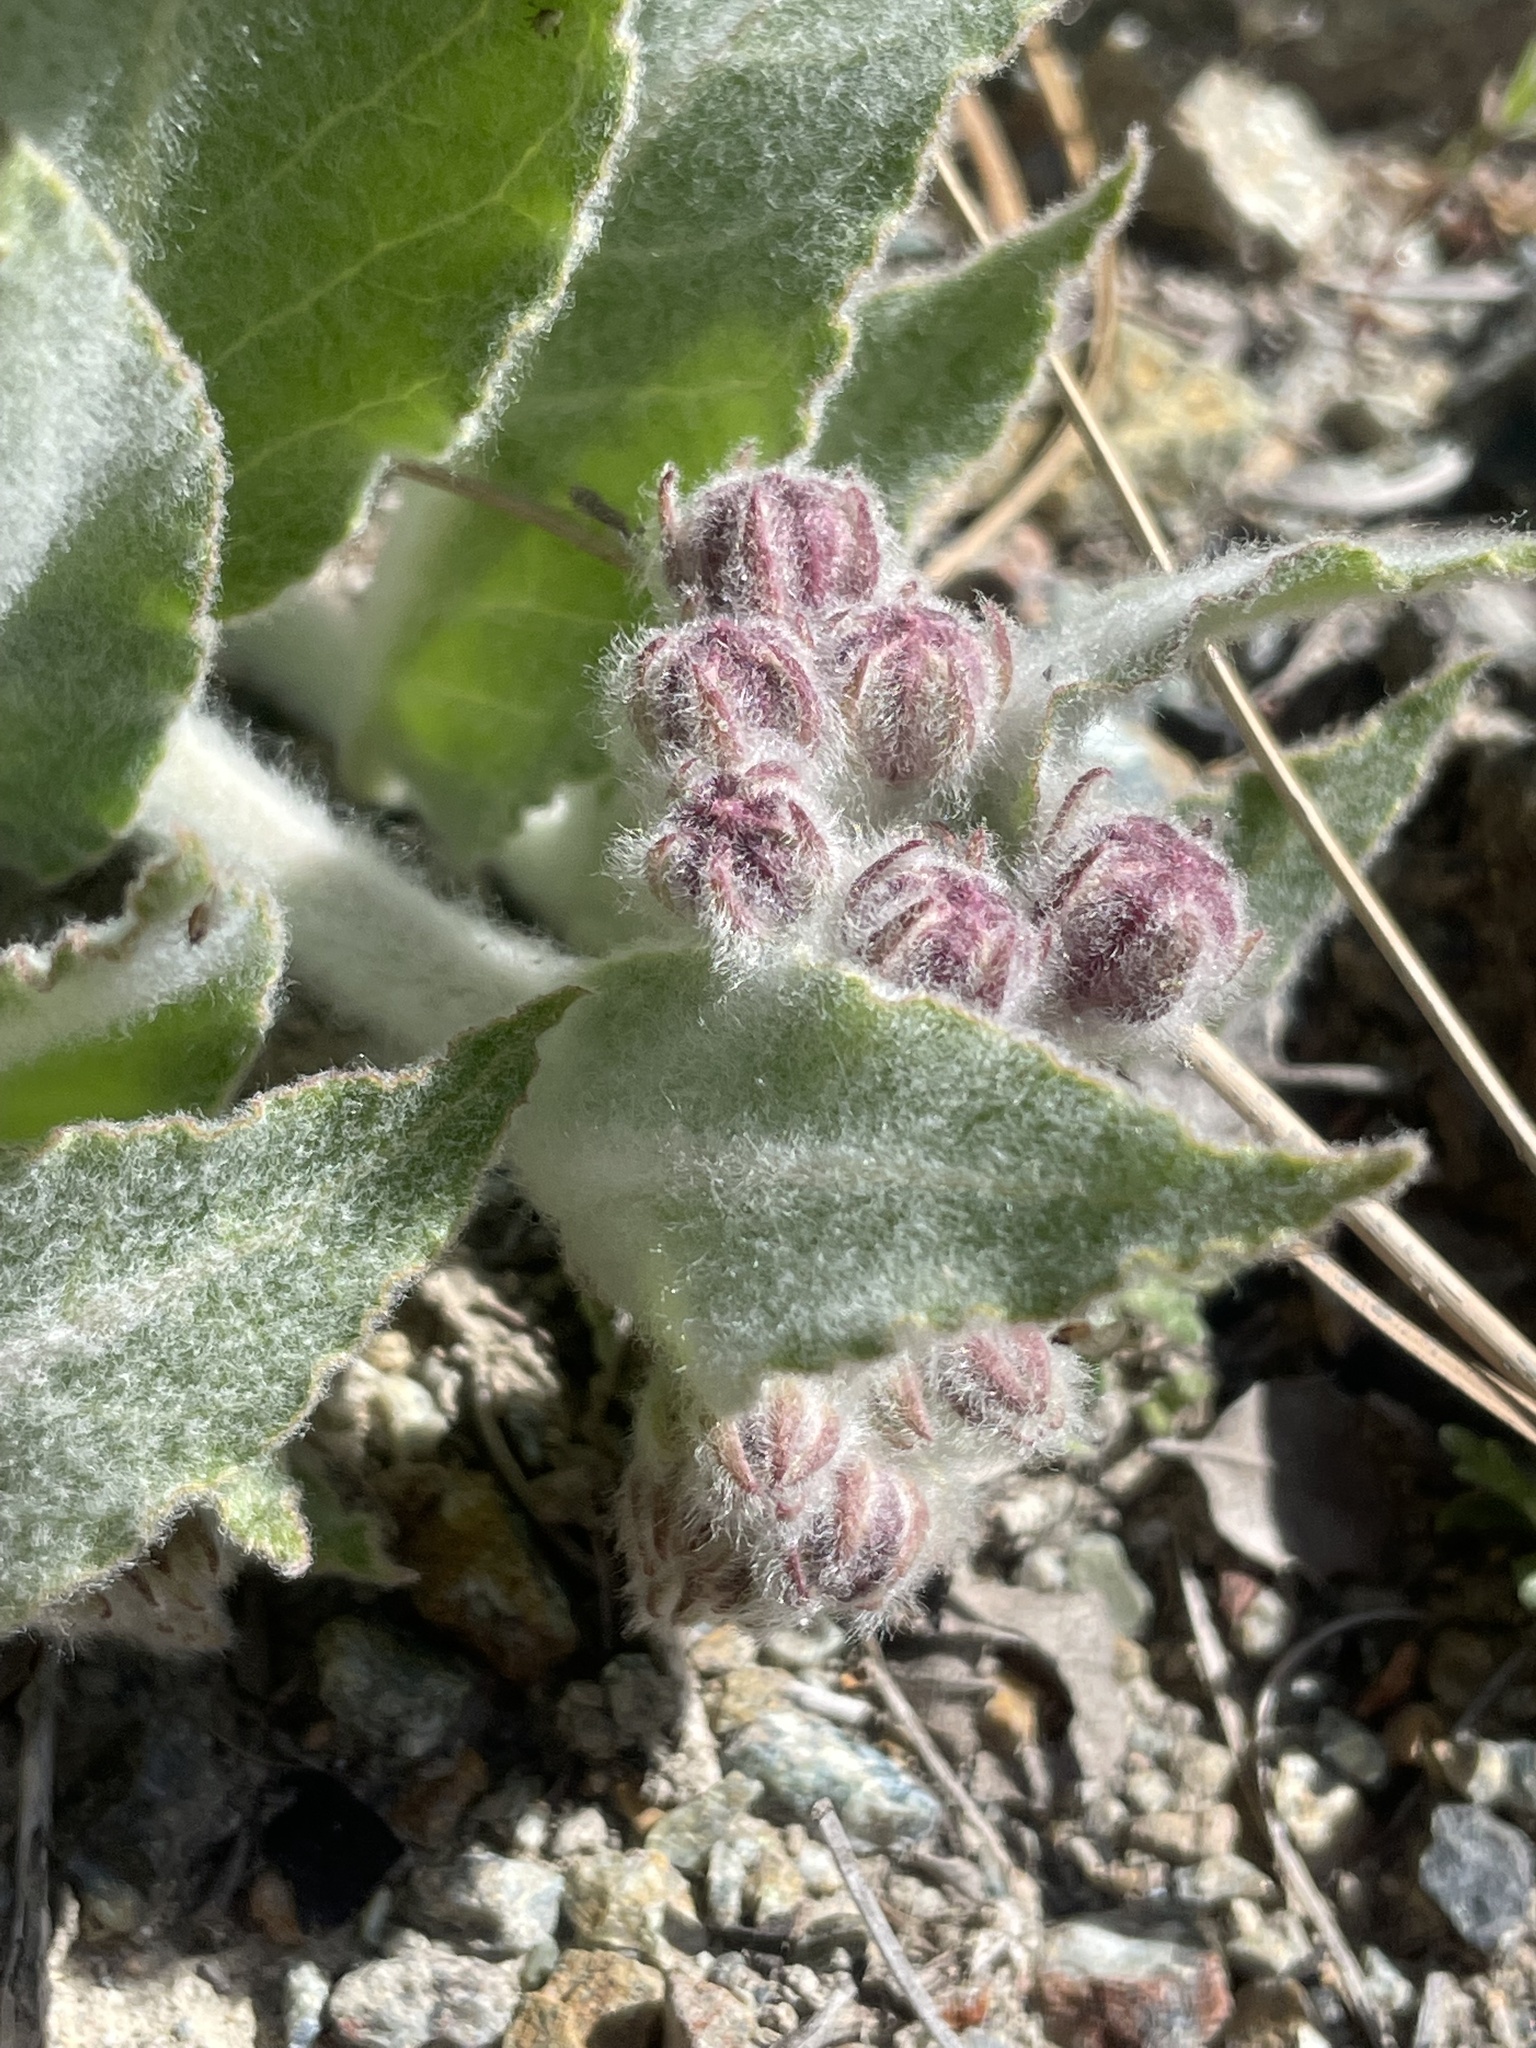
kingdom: Plantae
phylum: Tracheophyta
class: Magnoliopsida
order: Gentianales
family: Apocynaceae
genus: Asclepias
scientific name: Asclepias californica
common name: California milkweed
